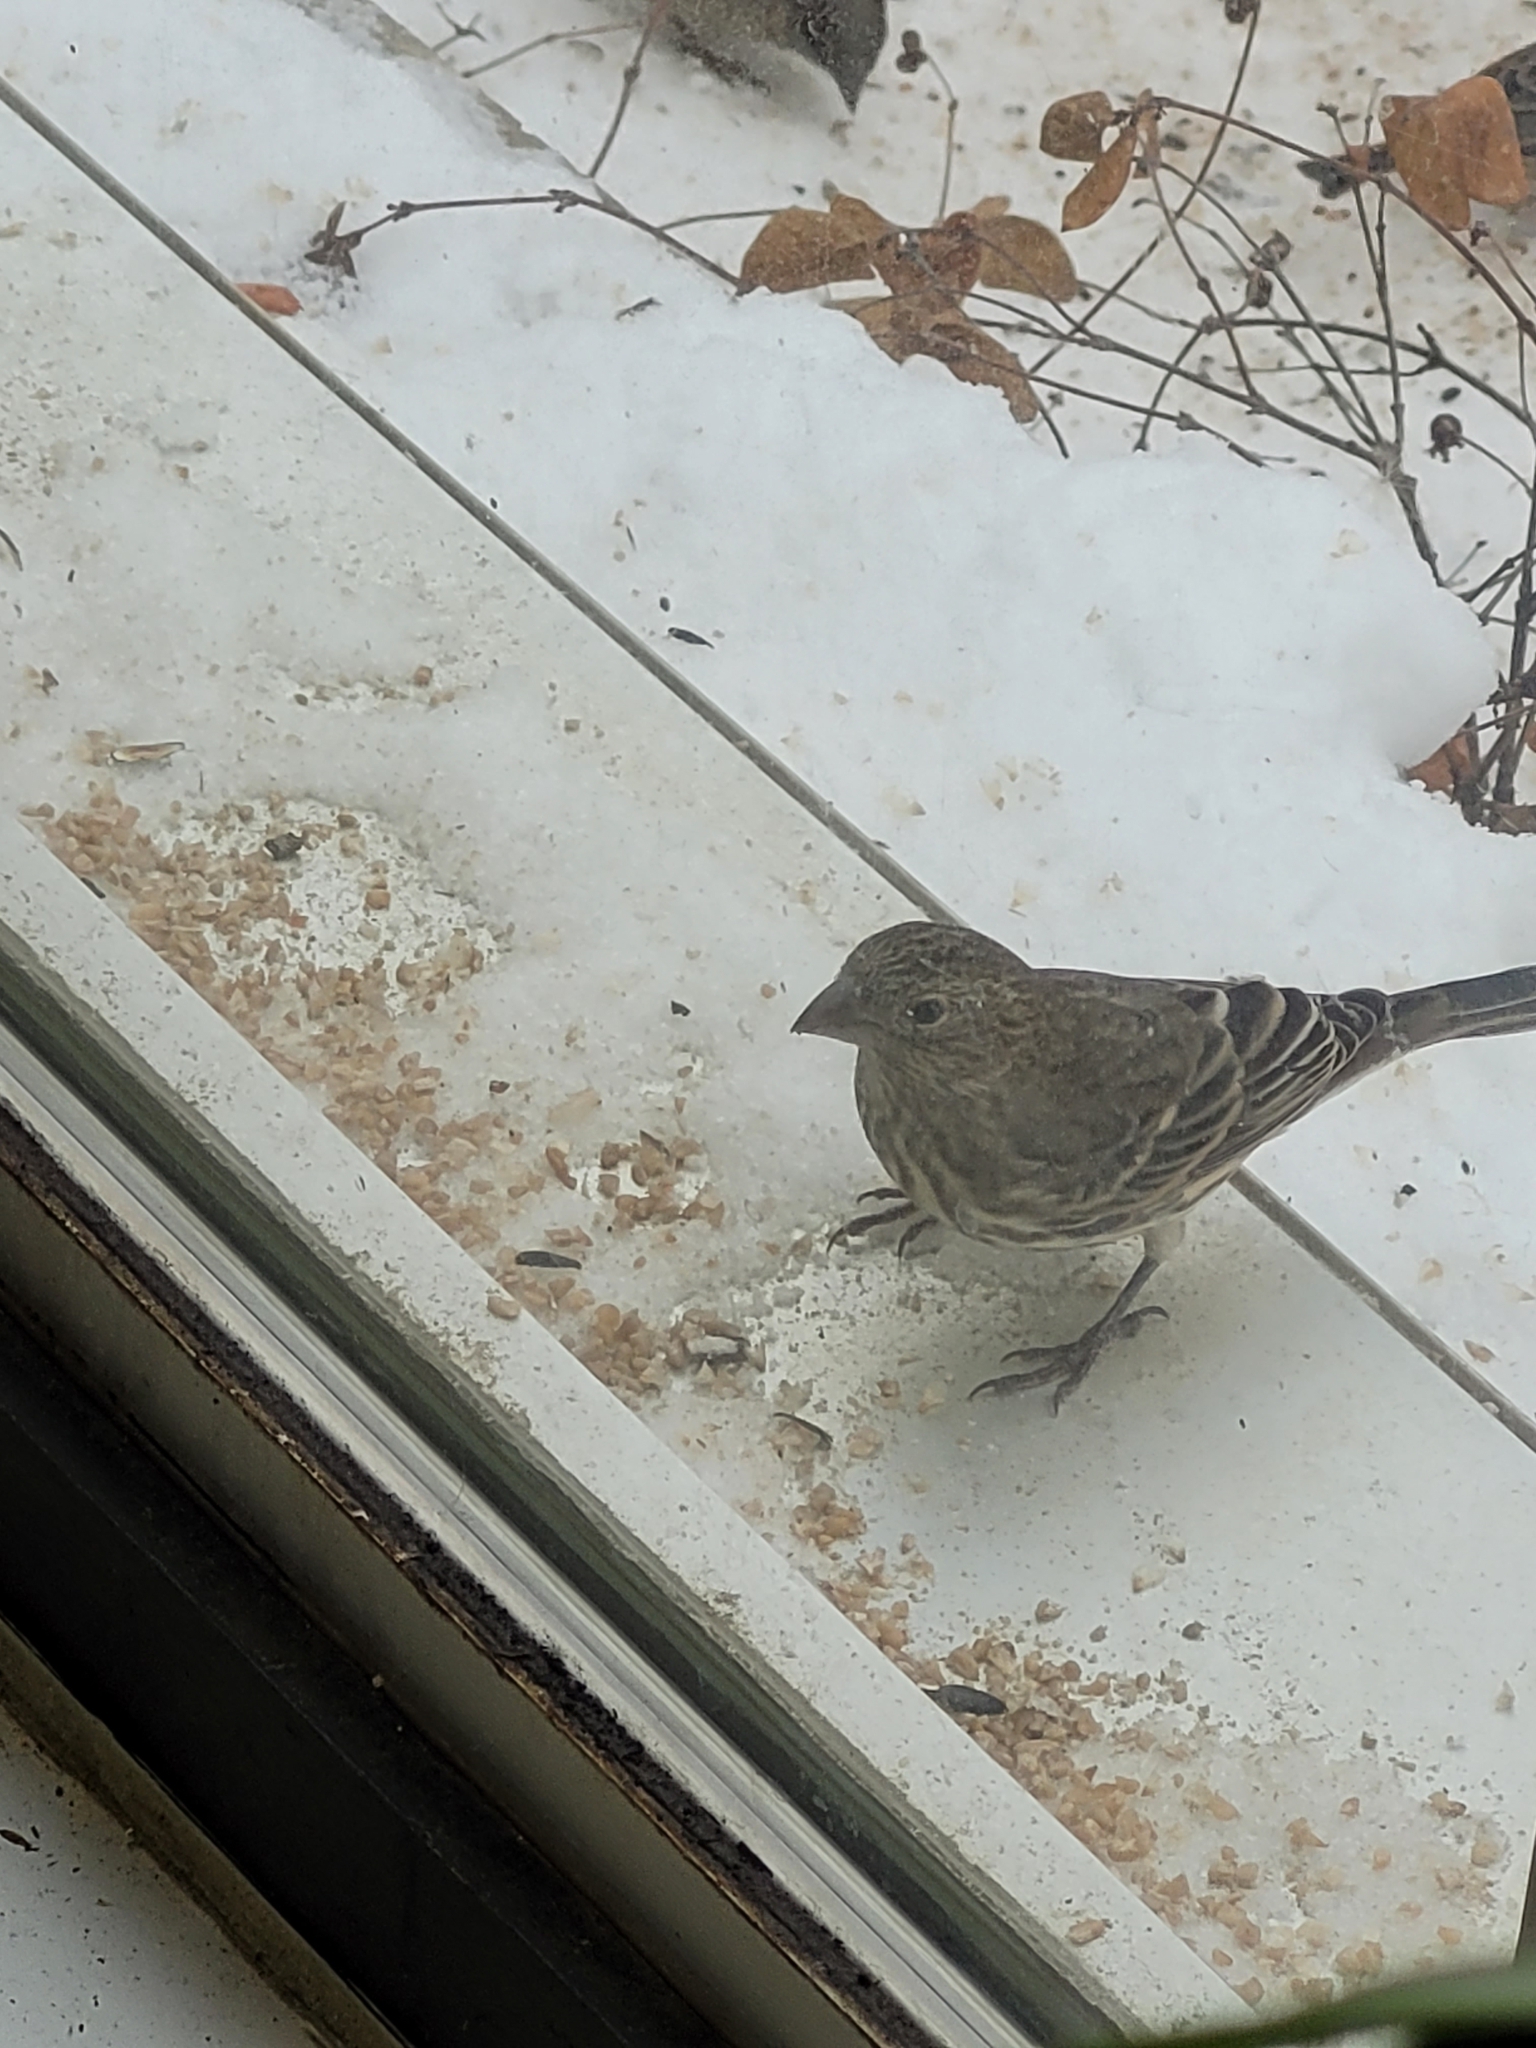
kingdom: Animalia
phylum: Chordata
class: Aves
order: Passeriformes
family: Fringillidae
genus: Haemorhous
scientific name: Haemorhous mexicanus
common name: House finch
